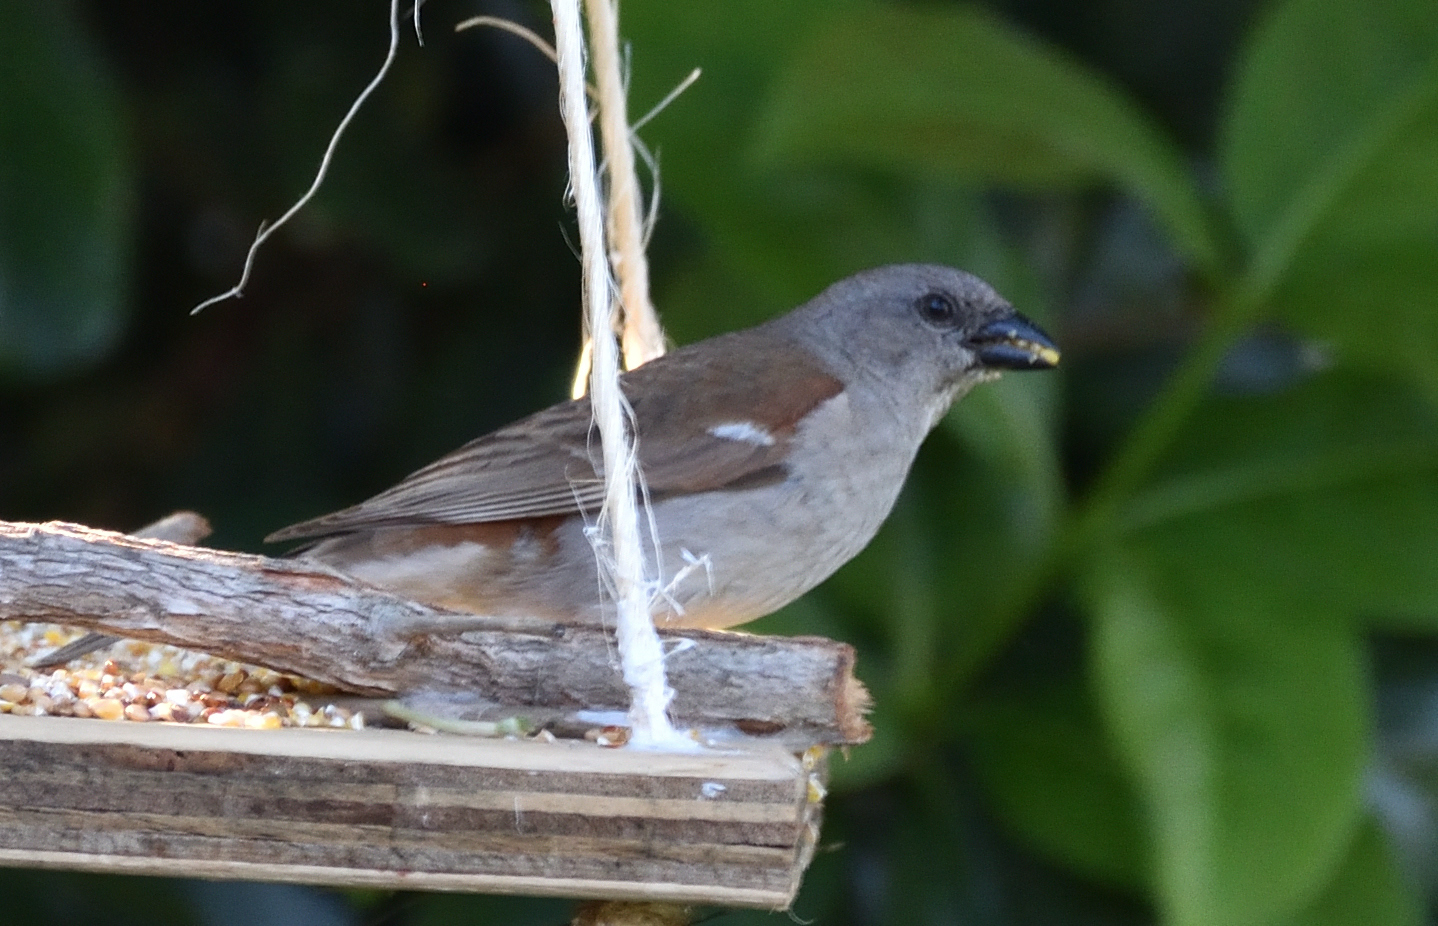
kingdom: Animalia
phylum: Chordata
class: Aves
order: Passeriformes
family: Passeridae
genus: Passer
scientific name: Passer diffusus
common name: Southern grey-headed sparrow
